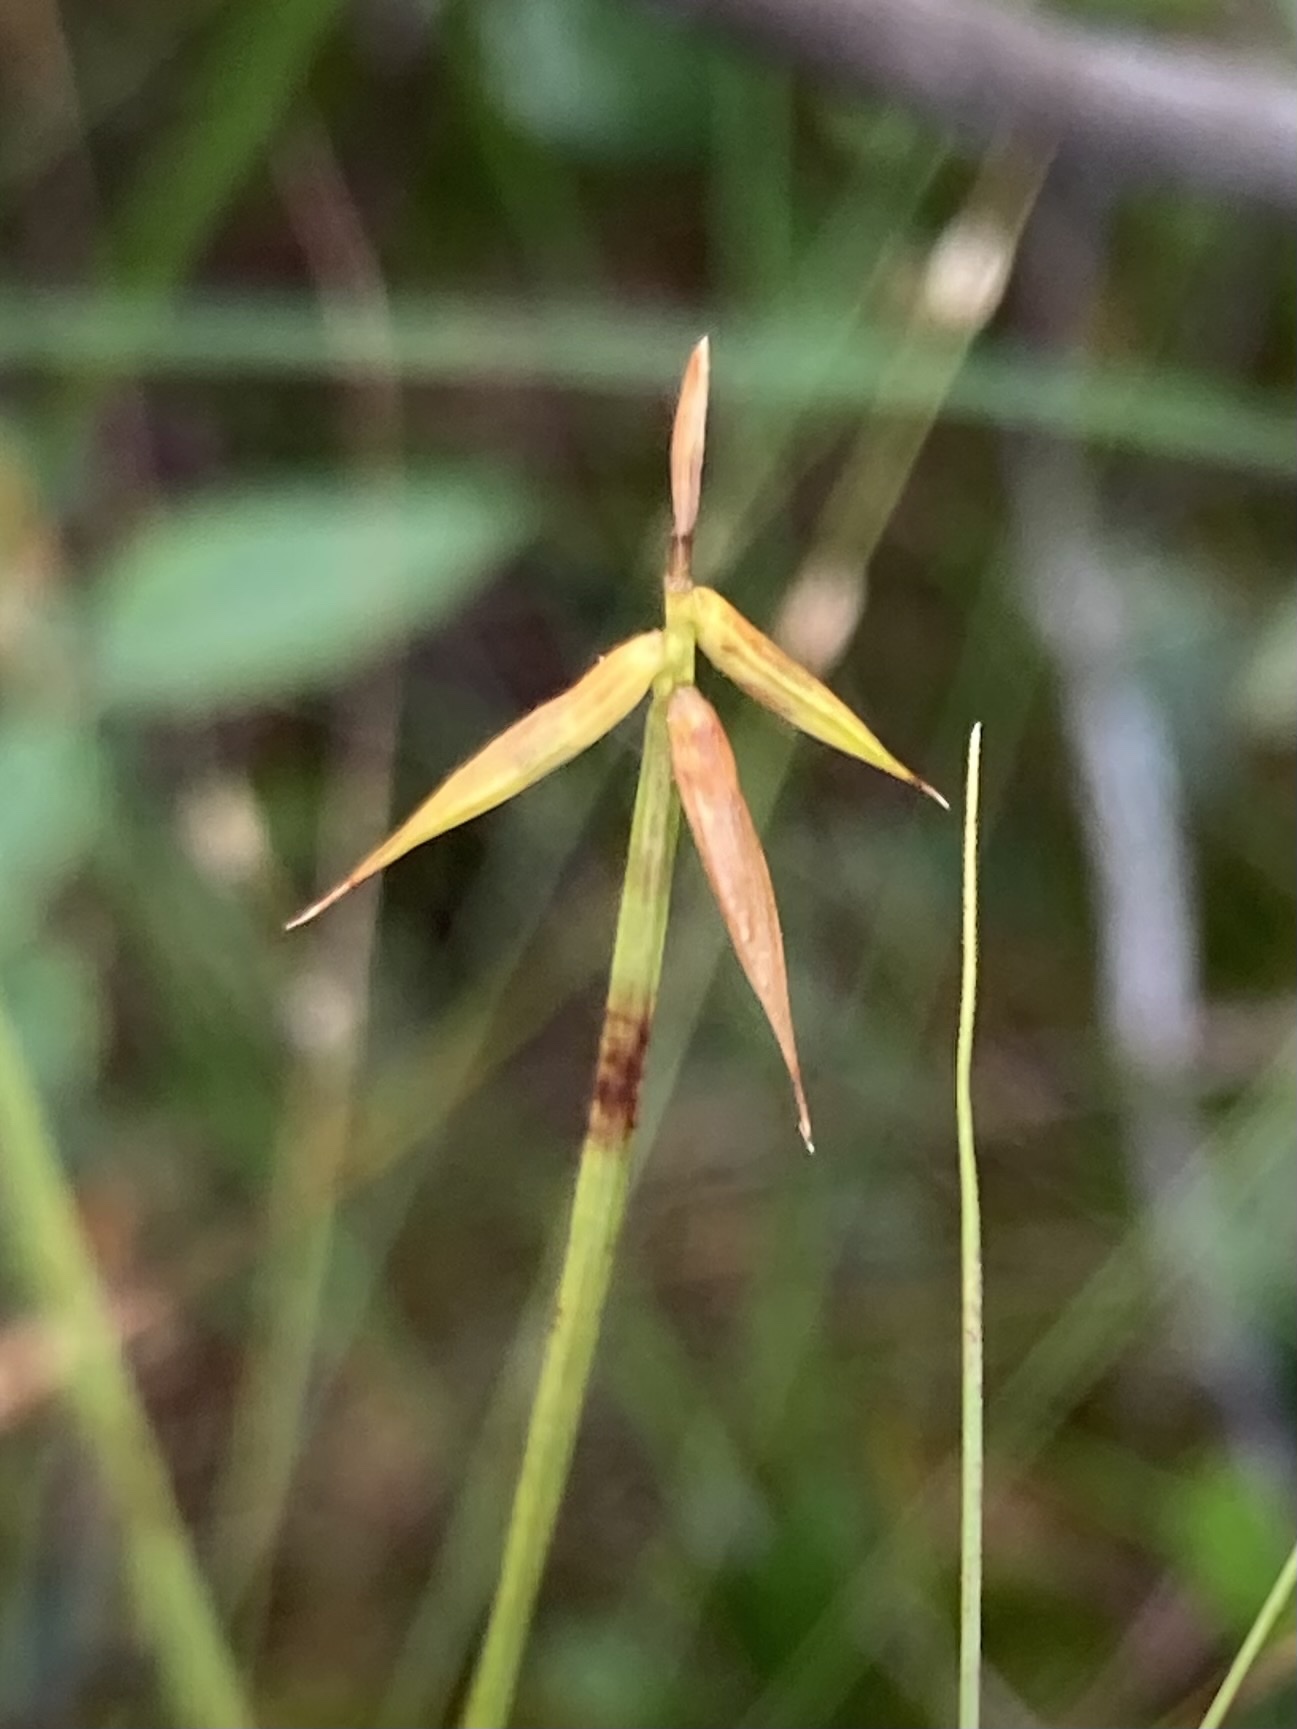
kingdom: Plantae
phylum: Tracheophyta
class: Liliopsida
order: Poales
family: Cyperaceae
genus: Carex
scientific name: Carex pauciflora
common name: Few-flowered sedge
